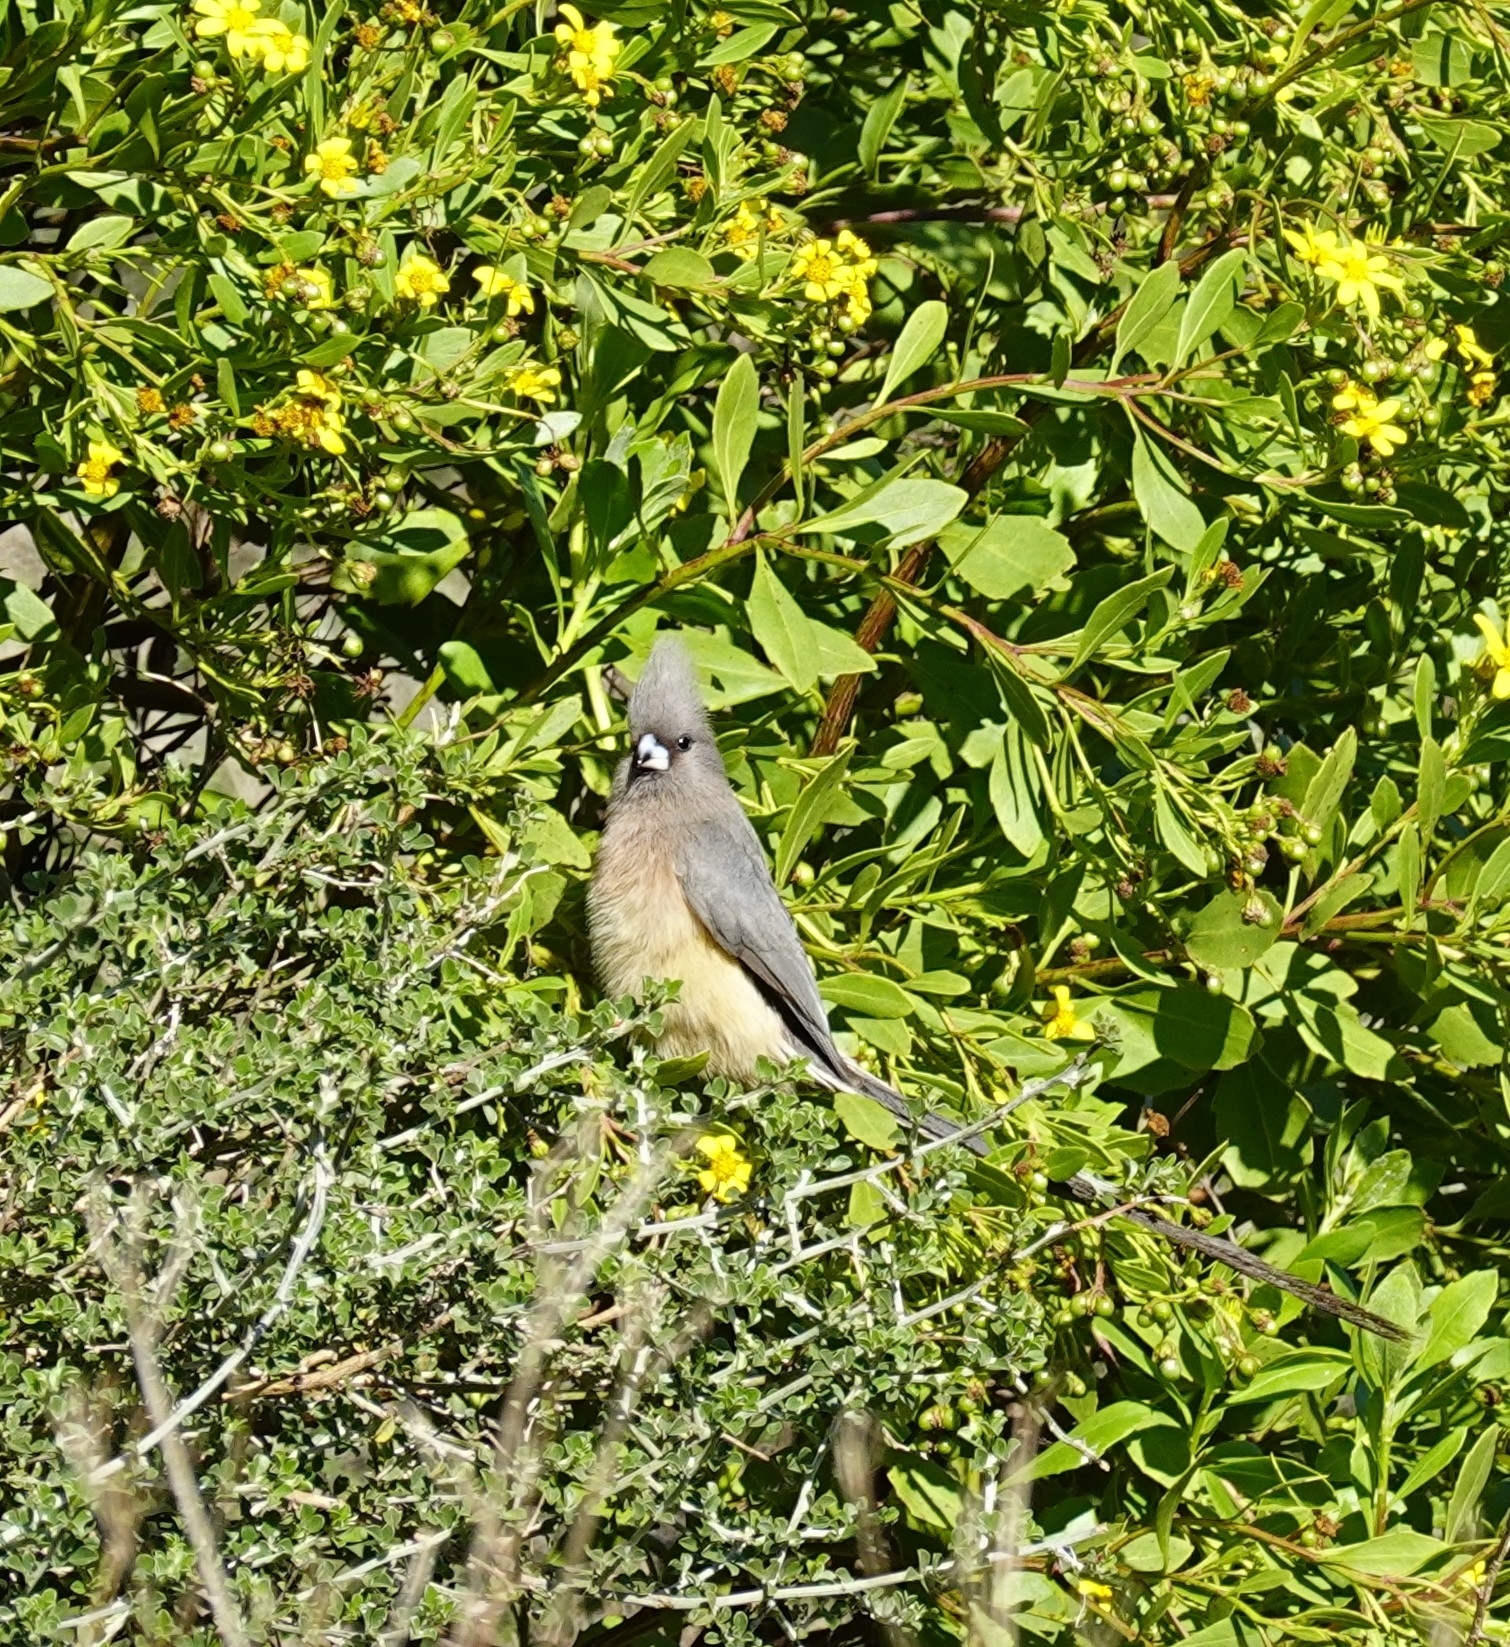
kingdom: Animalia
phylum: Chordata
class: Aves
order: Coliiformes
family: Coliidae
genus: Colius
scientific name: Colius colius
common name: White-backed mousebird
